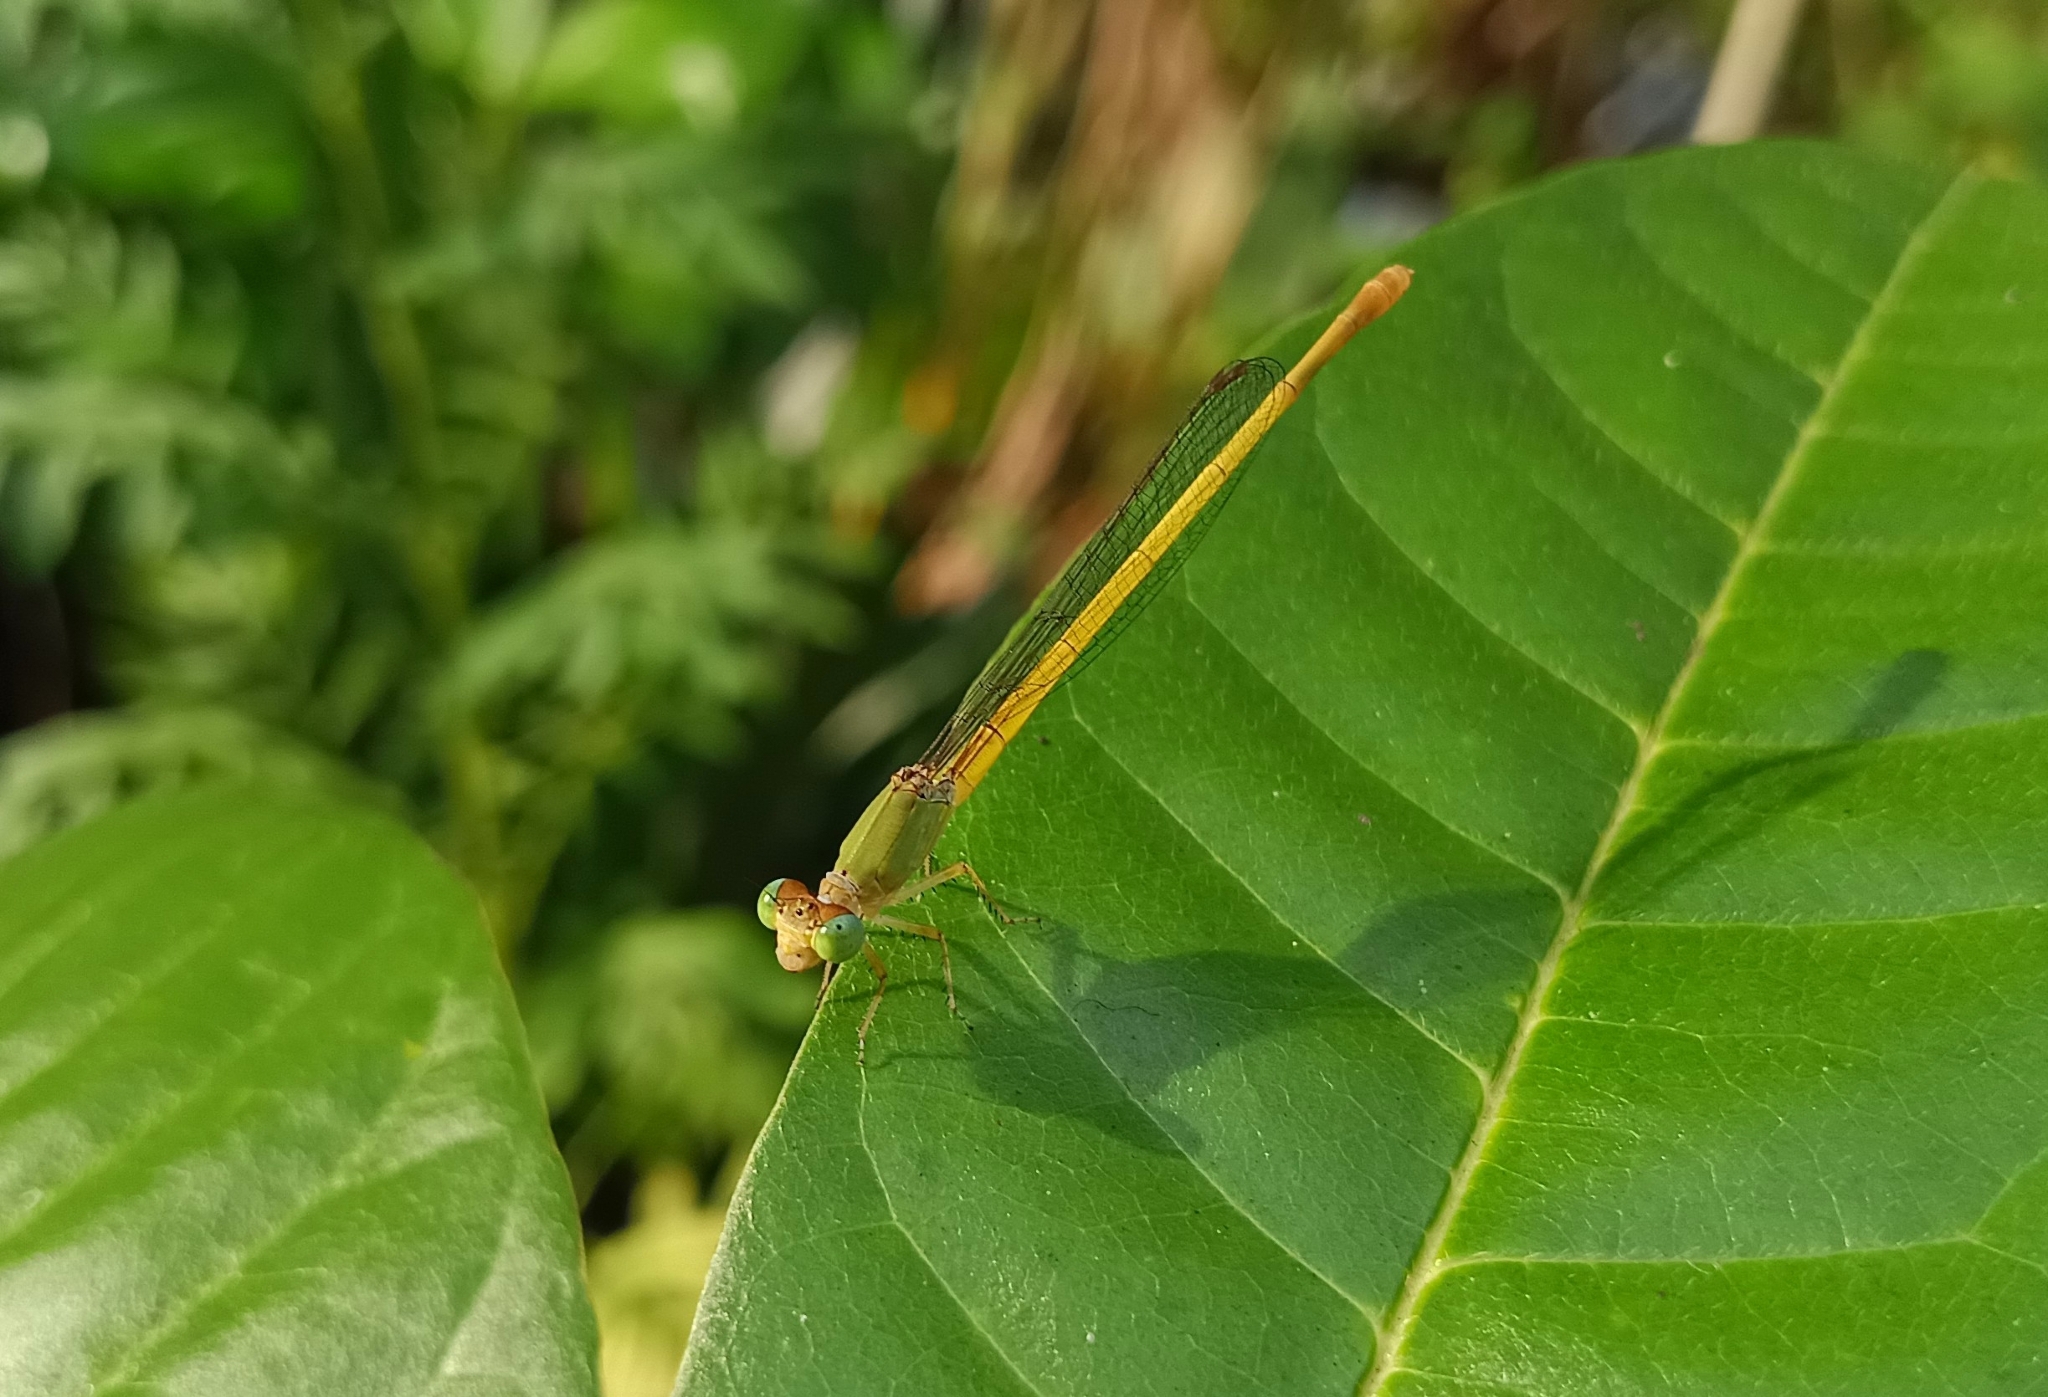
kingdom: Animalia
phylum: Arthropoda
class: Insecta
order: Odonata
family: Coenagrionidae
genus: Ceriagrion
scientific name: Ceriagrion coromandelianum
